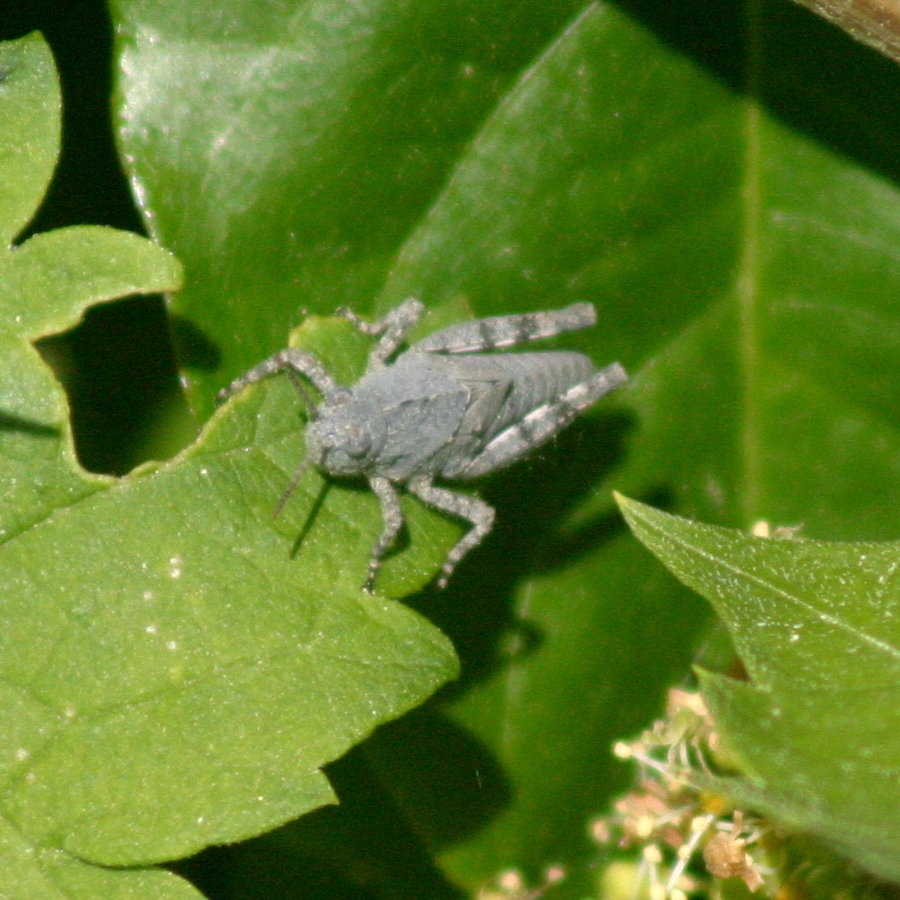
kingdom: Animalia
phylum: Arthropoda
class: Insecta
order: Orthoptera
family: Acrididae
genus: Dissosteira
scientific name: Dissosteira carolina
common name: Carolina grasshopper
